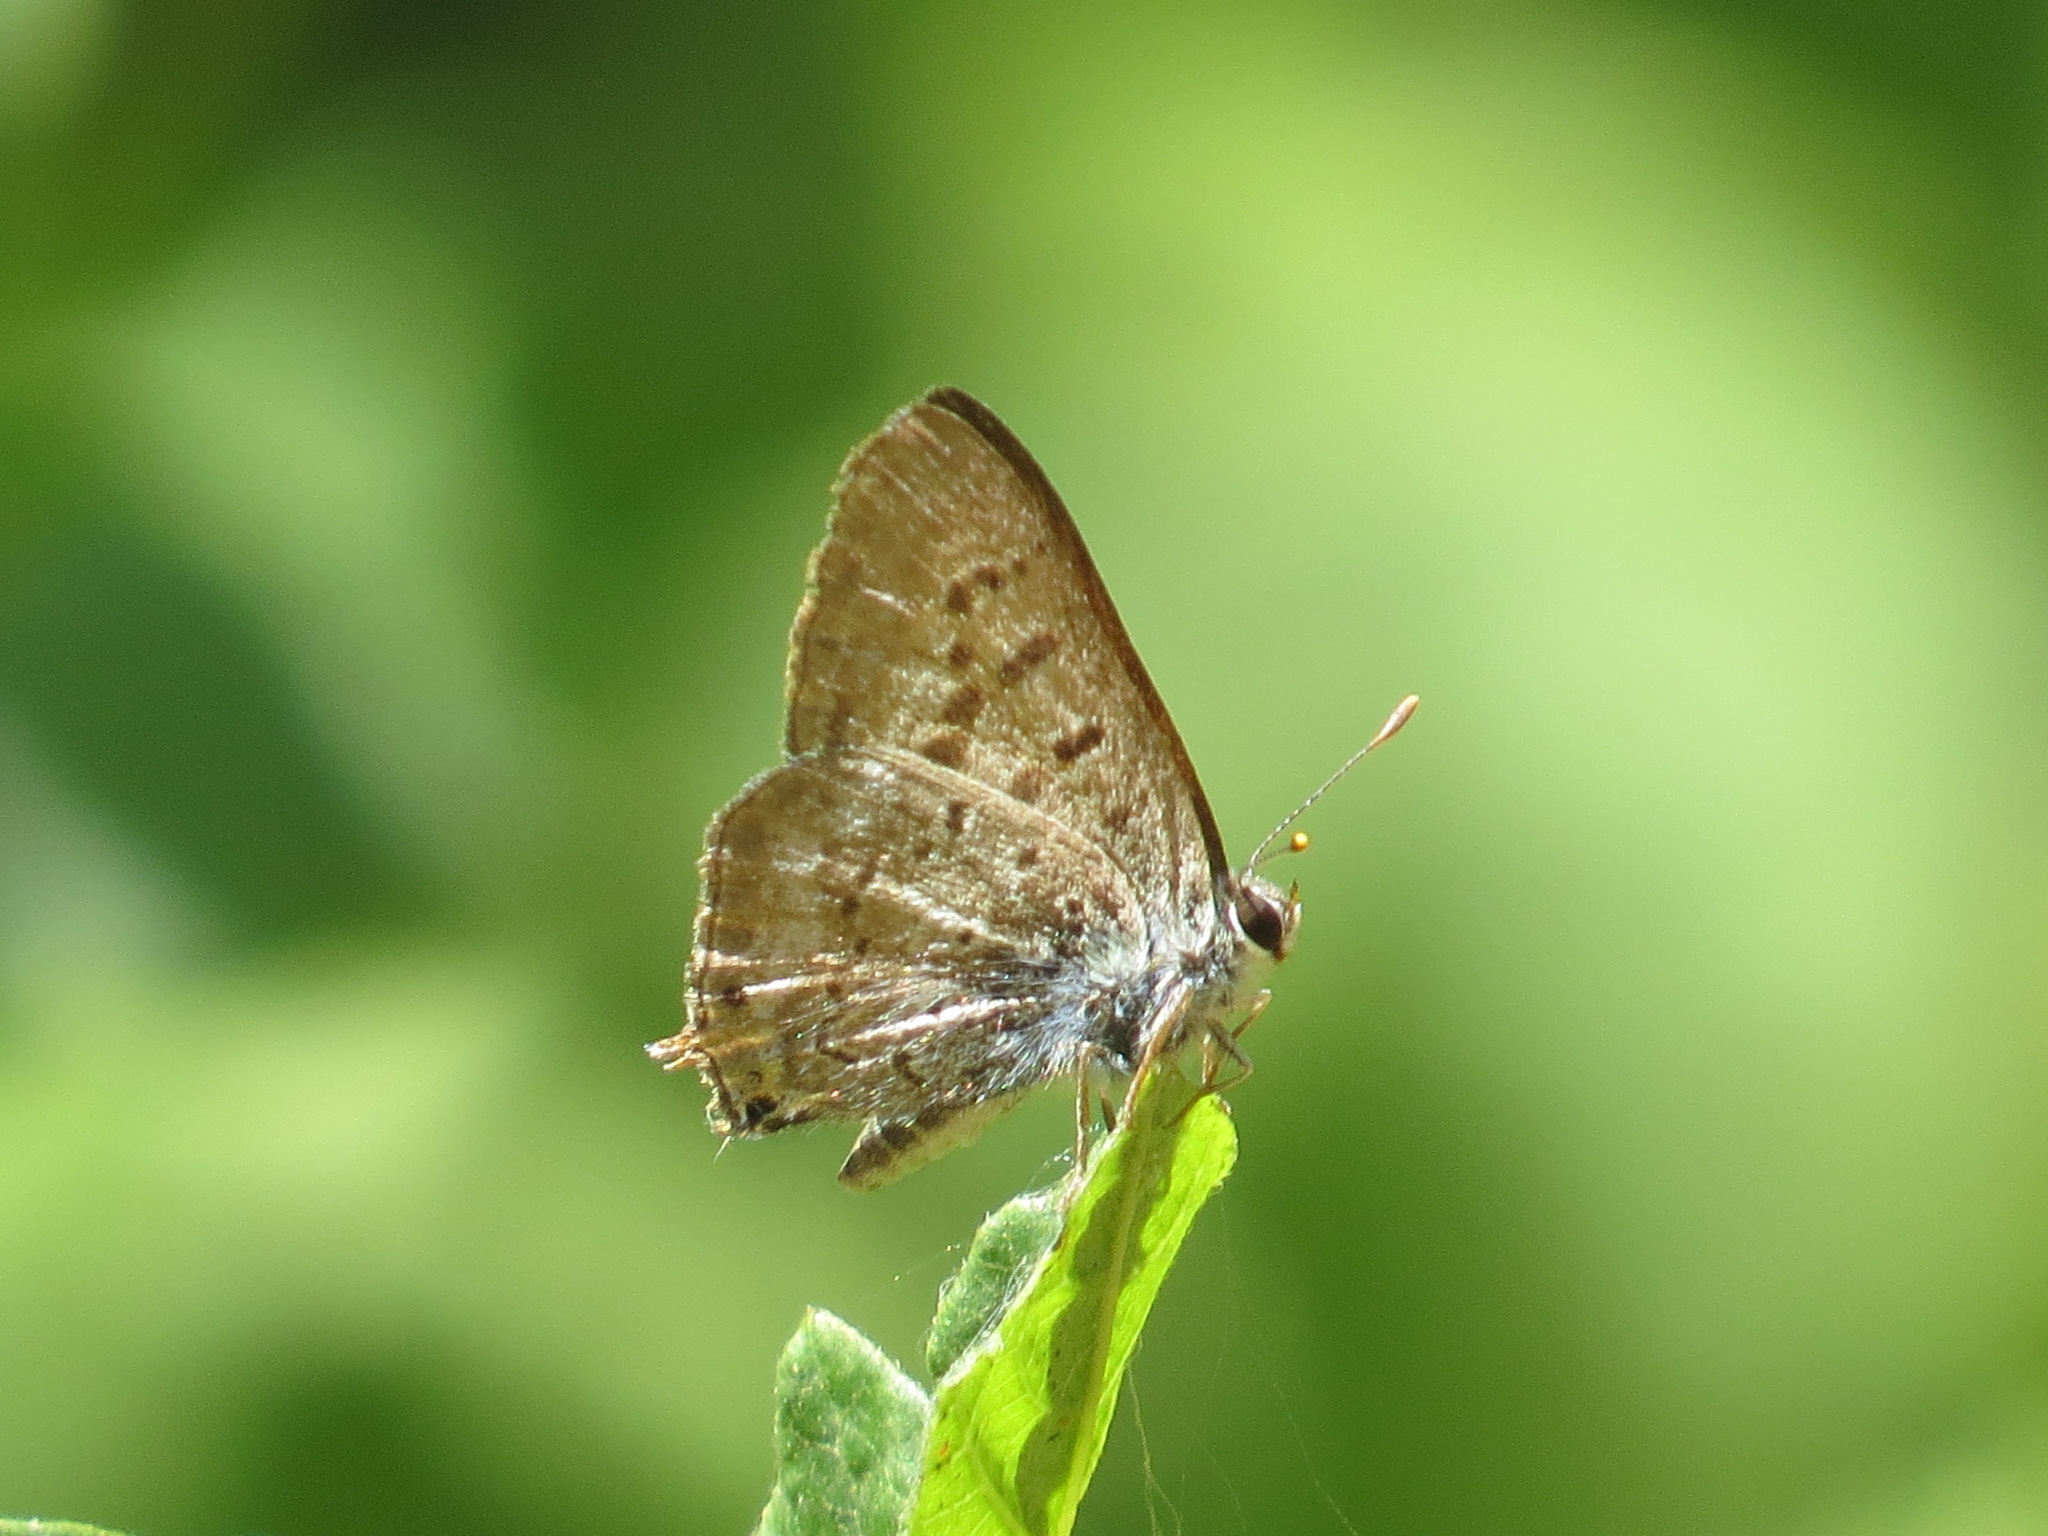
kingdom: Animalia
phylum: Arthropoda
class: Insecta
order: Lepidoptera
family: Lycaenidae
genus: Tharsalea
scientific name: Tharsalea arota
